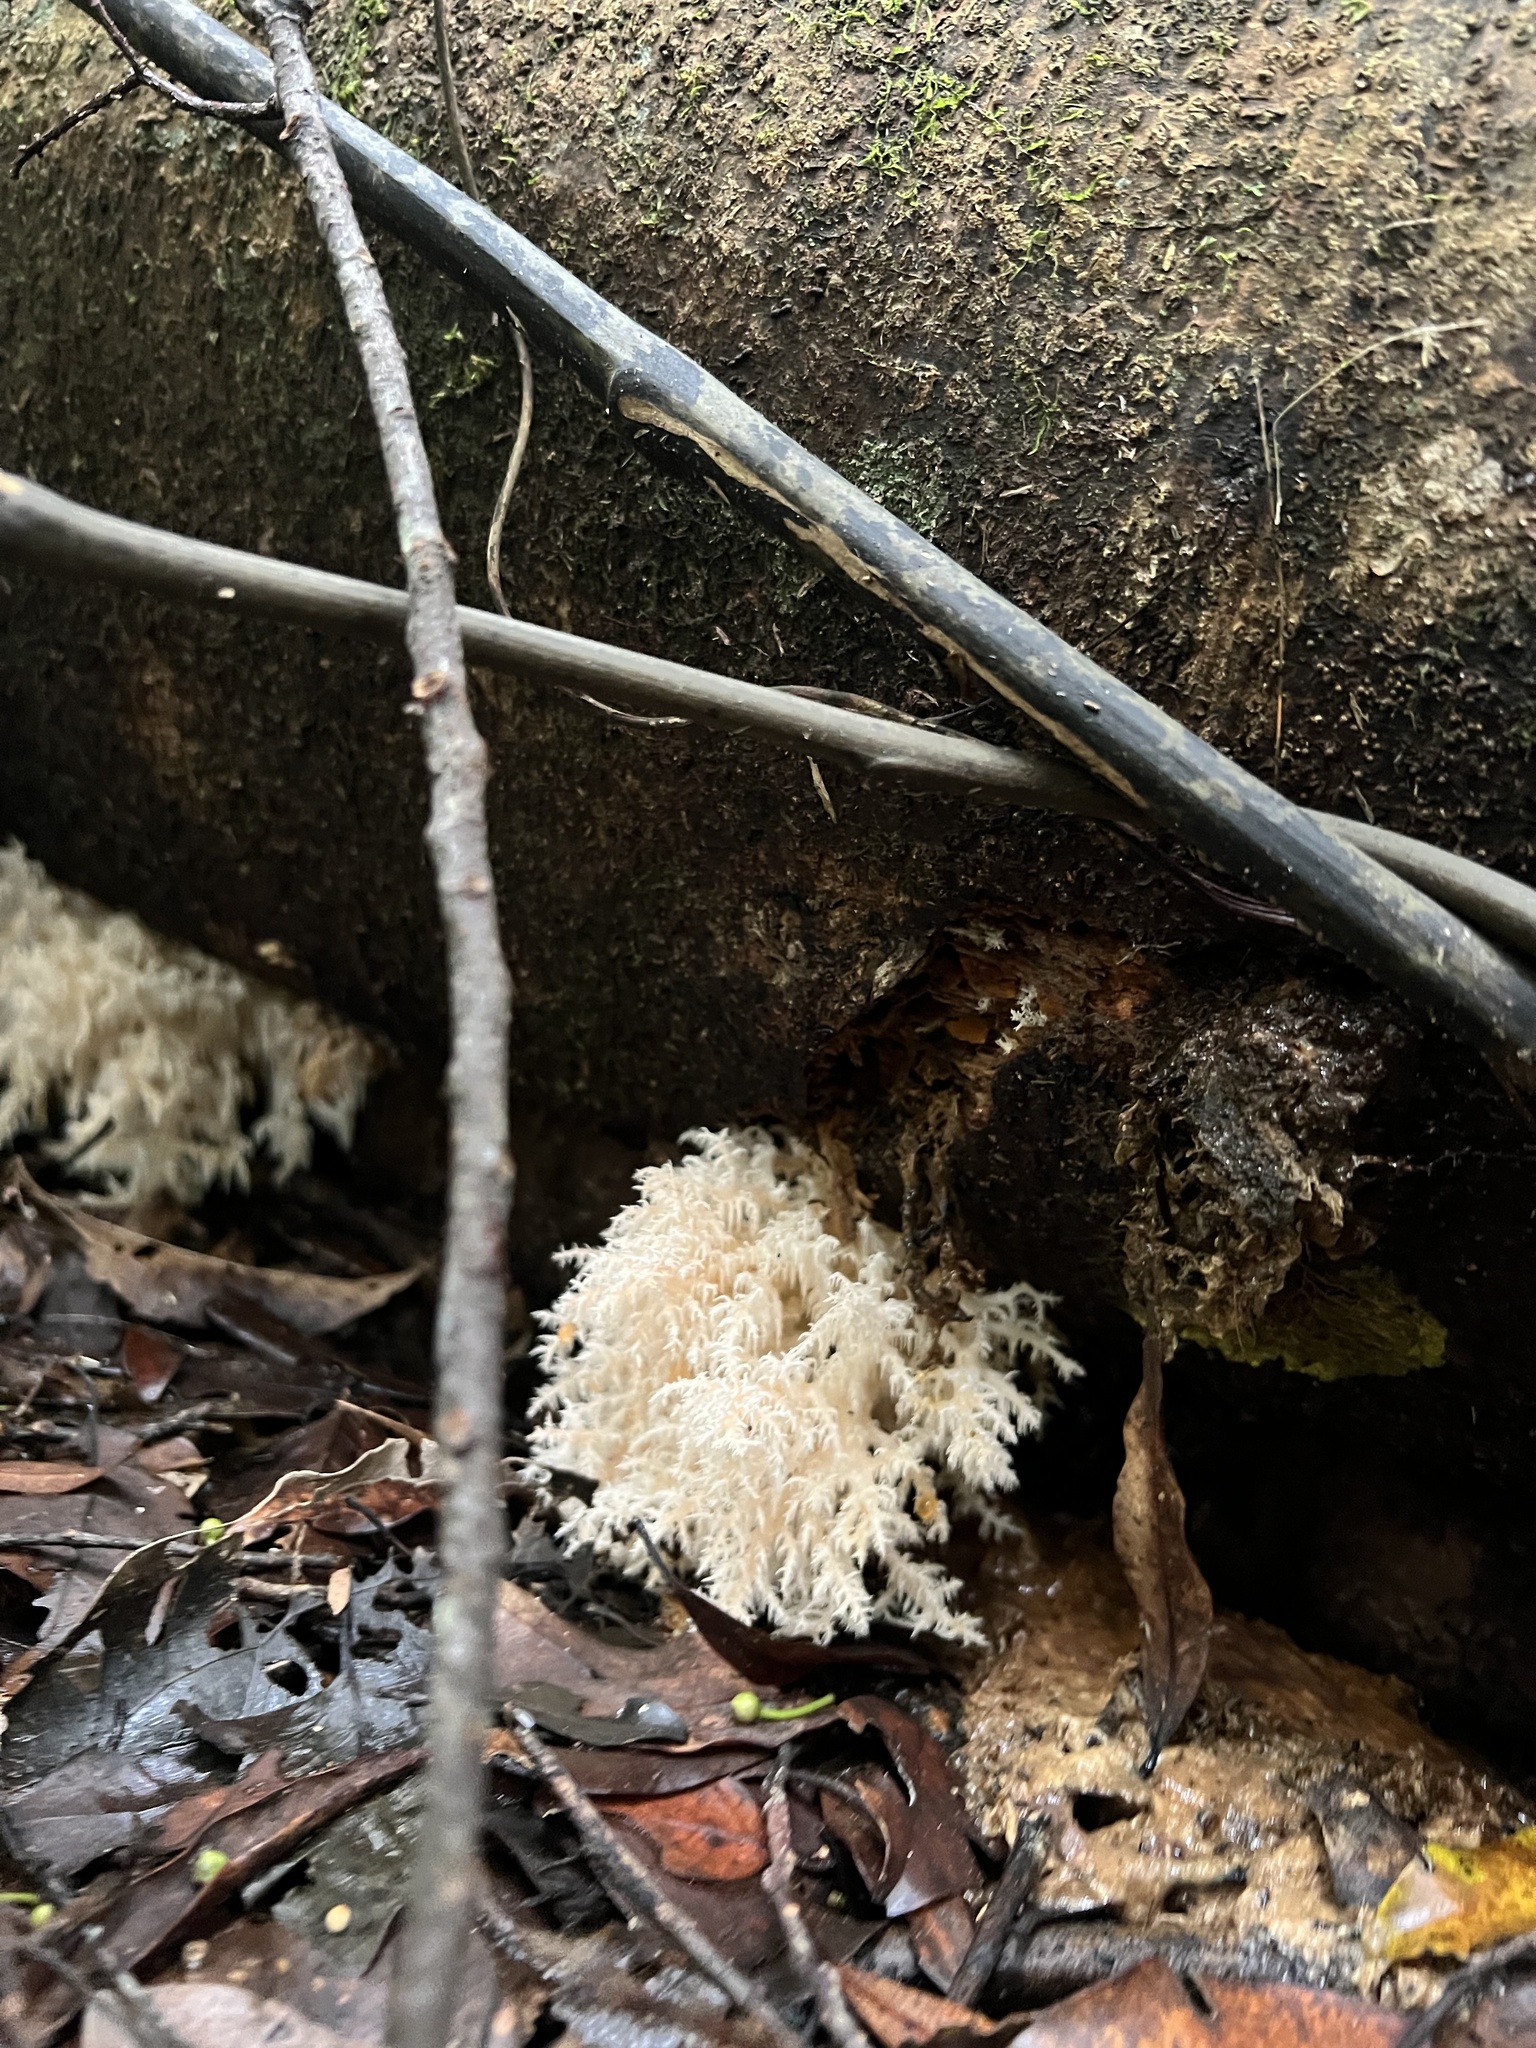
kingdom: Fungi
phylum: Basidiomycota
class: Agaricomycetes
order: Russulales
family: Hericiaceae
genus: Hericium
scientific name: Hericium novae-zealandiae
